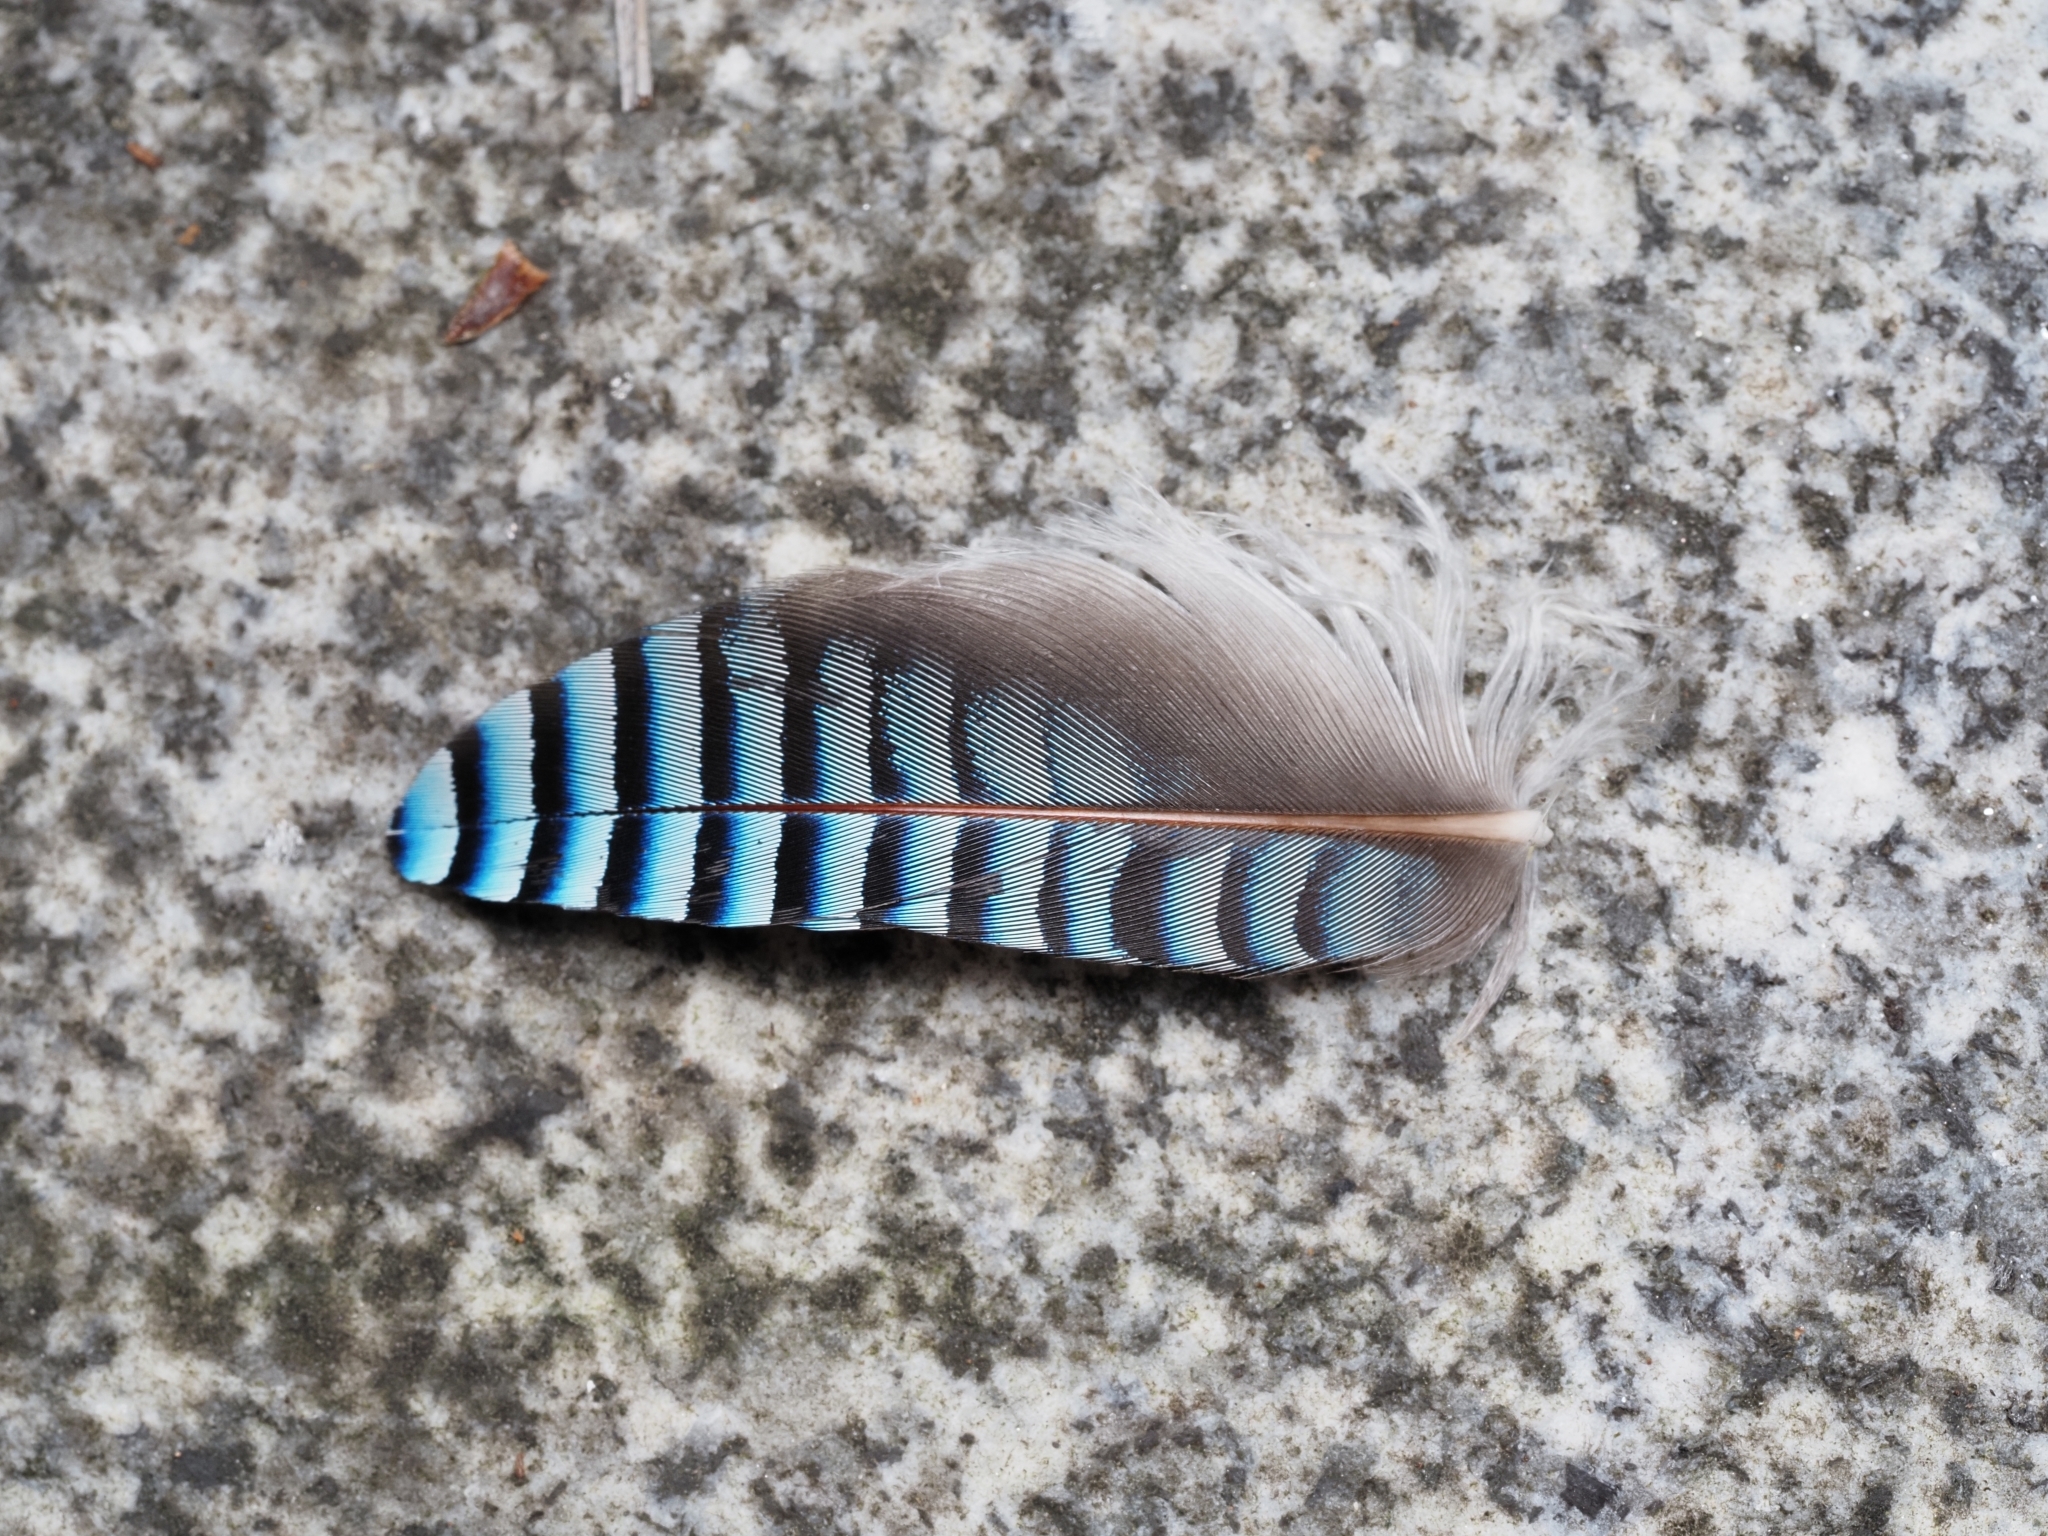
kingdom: Animalia
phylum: Chordata
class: Aves
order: Passeriformes
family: Corvidae
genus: Garrulus
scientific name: Garrulus glandarius
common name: Eurasian jay
